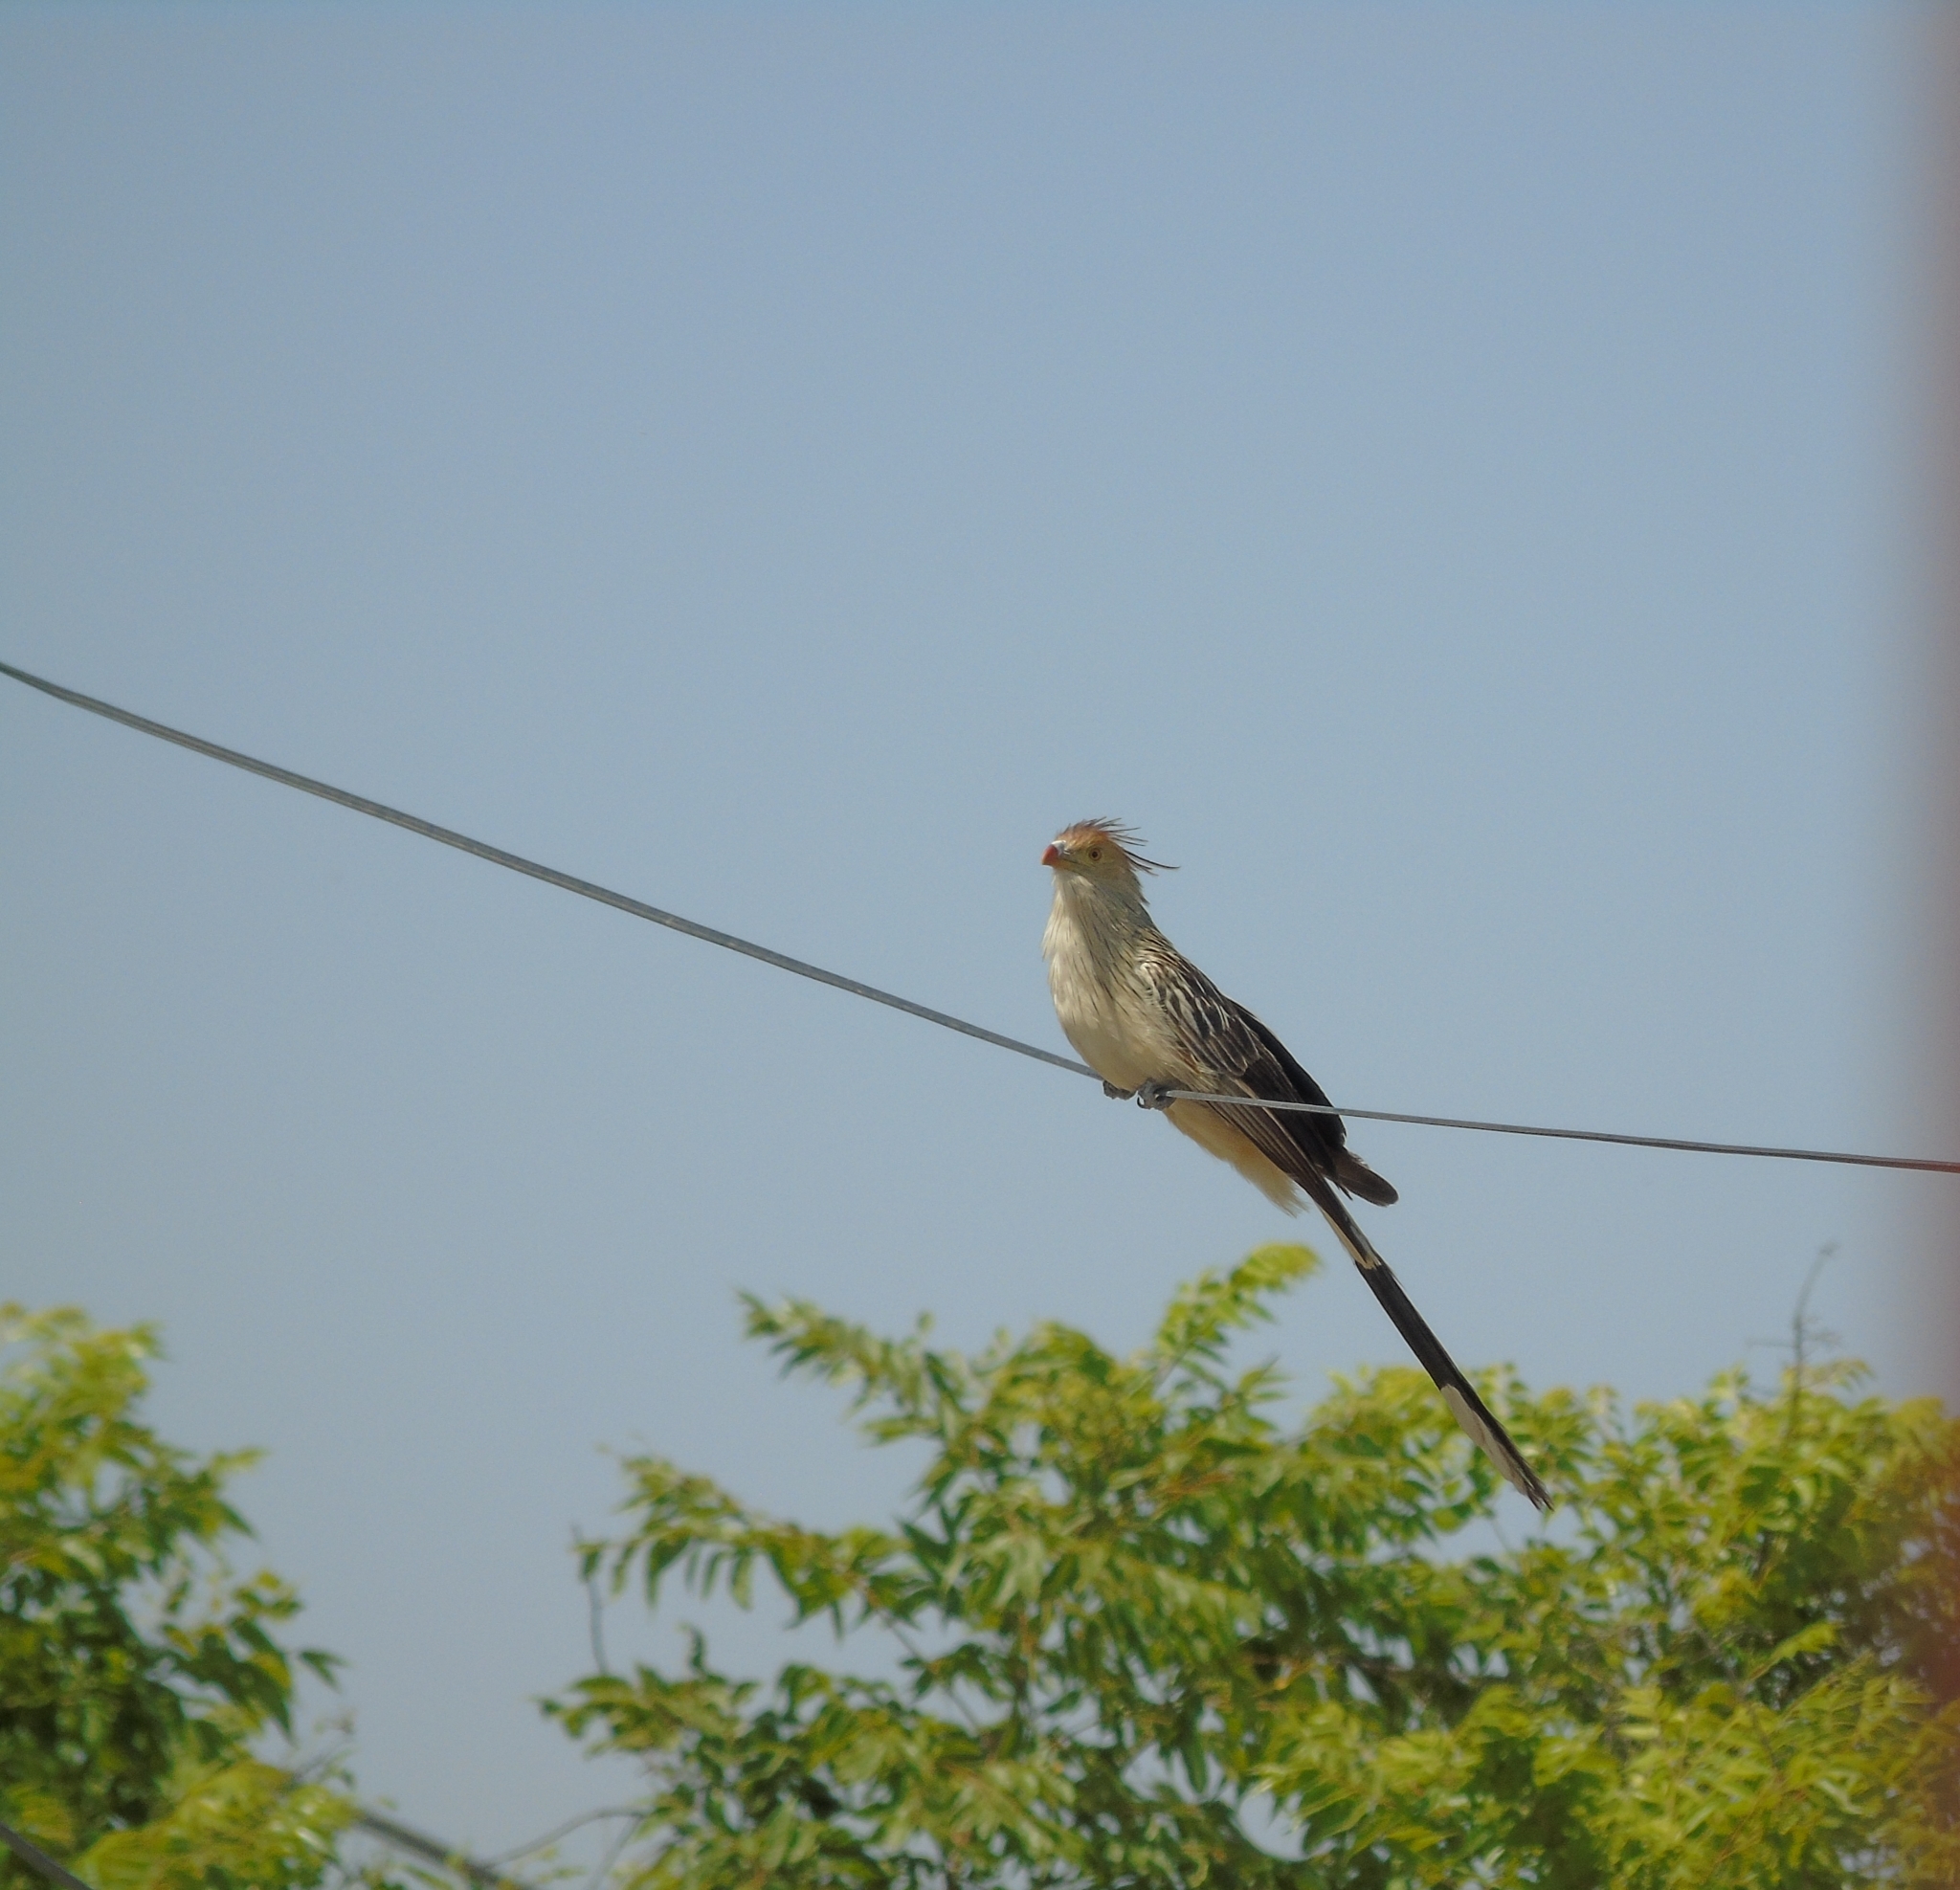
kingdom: Animalia
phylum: Chordata
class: Aves
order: Cuculiformes
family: Cuculidae
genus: Guira
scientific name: Guira guira
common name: Guira cuckoo
